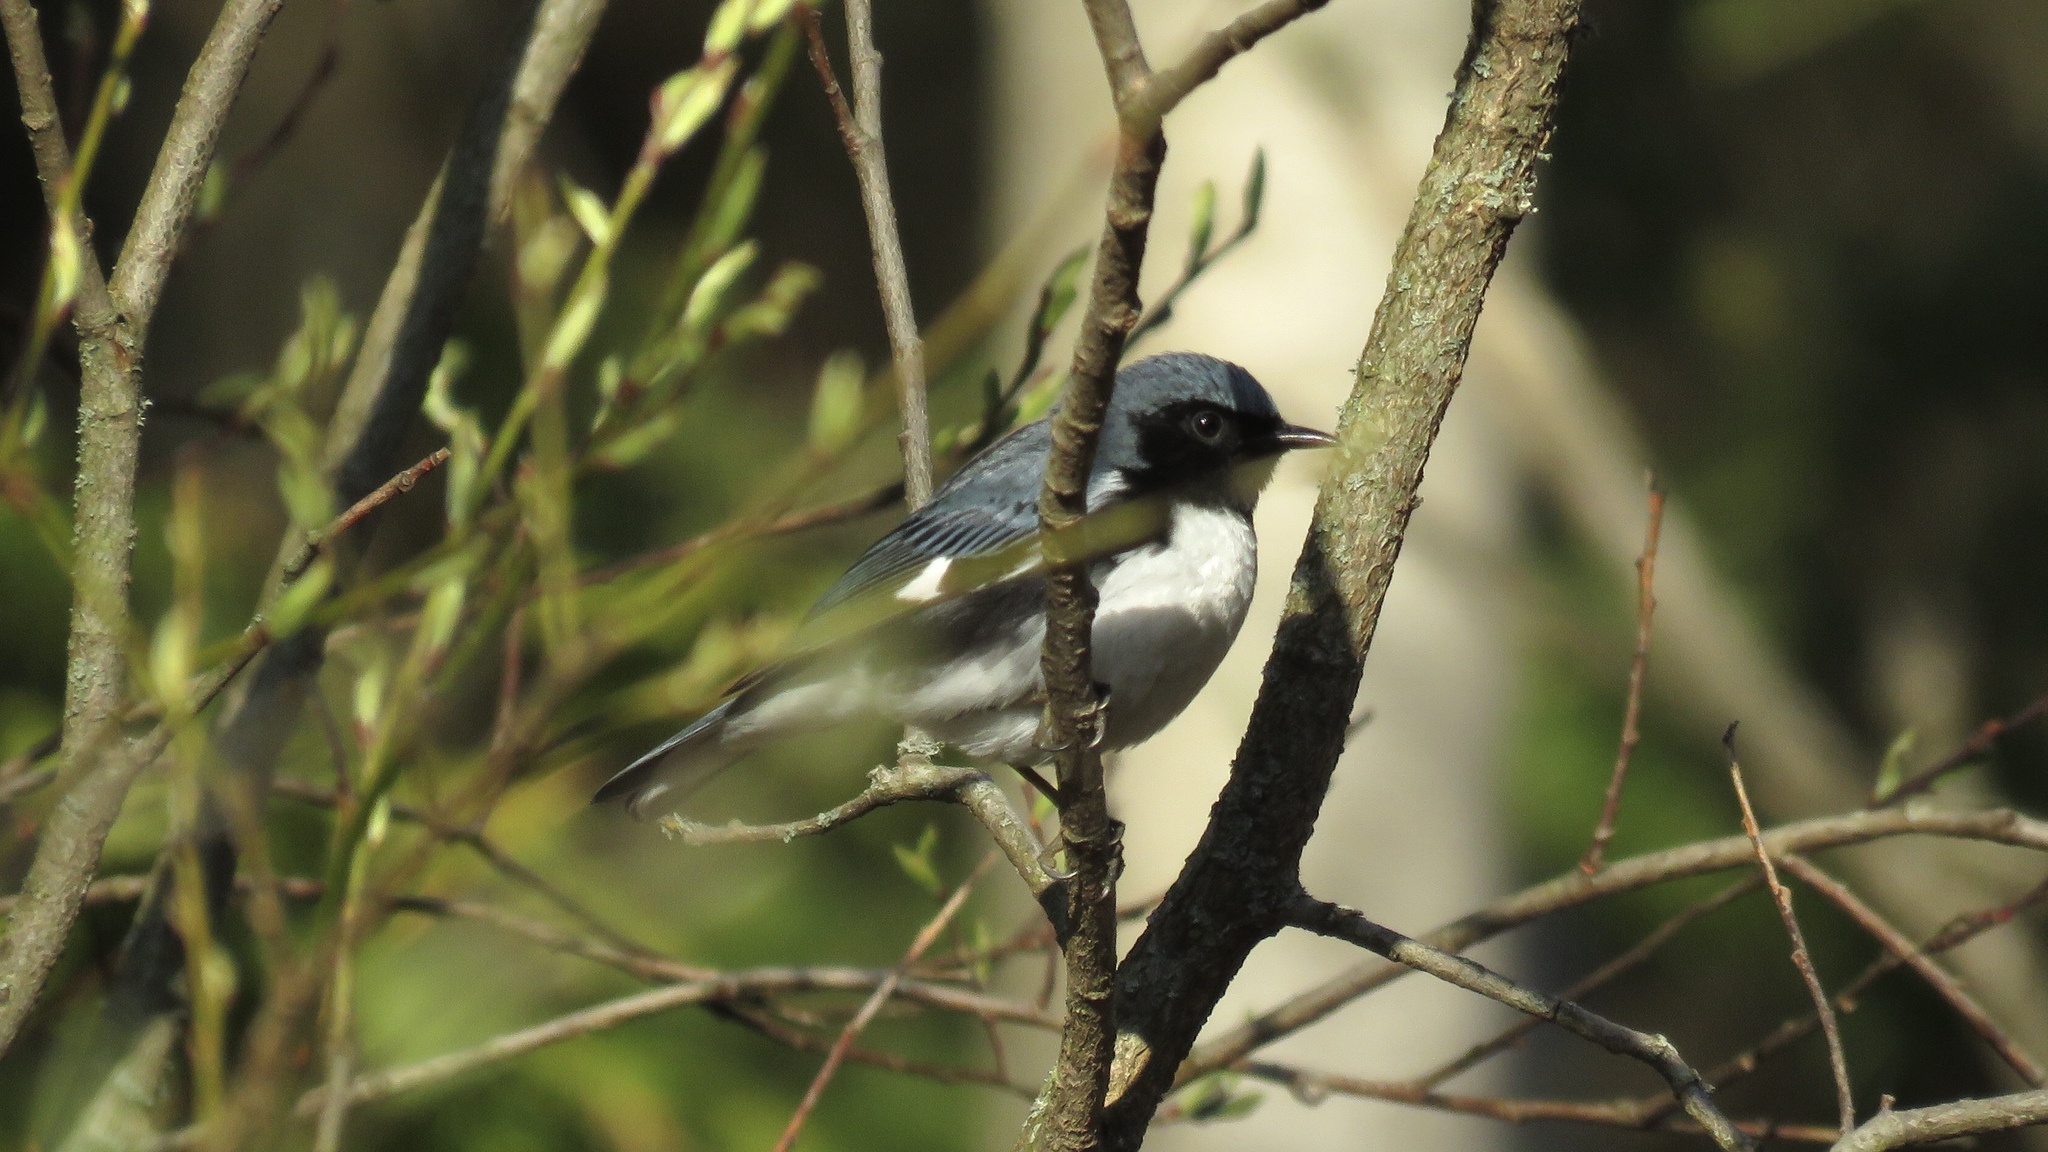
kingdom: Animalia
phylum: Chordata
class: Aves
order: Passeriformes
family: Parulidae
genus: Setophaga
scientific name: Setophaga caerulescens
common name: Black-throated blue warbler
